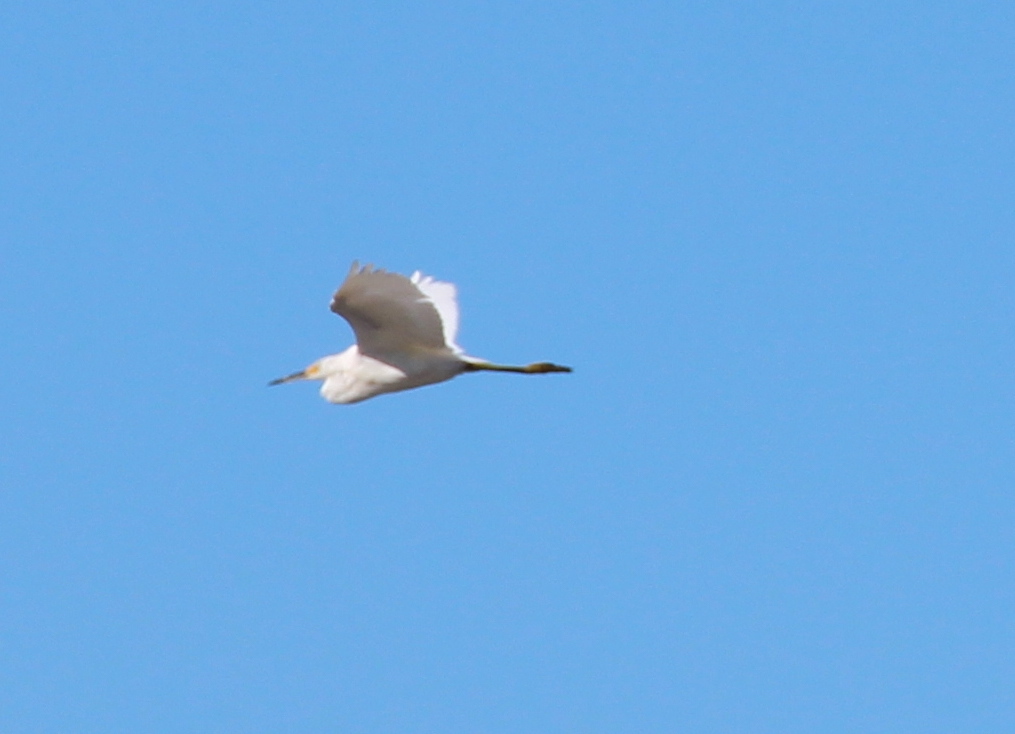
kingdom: Animalia
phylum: Chordata
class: Aves
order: Pelecaniformes
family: Ardeidae
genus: Egretta
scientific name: Egretta thula
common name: Snowy egret
